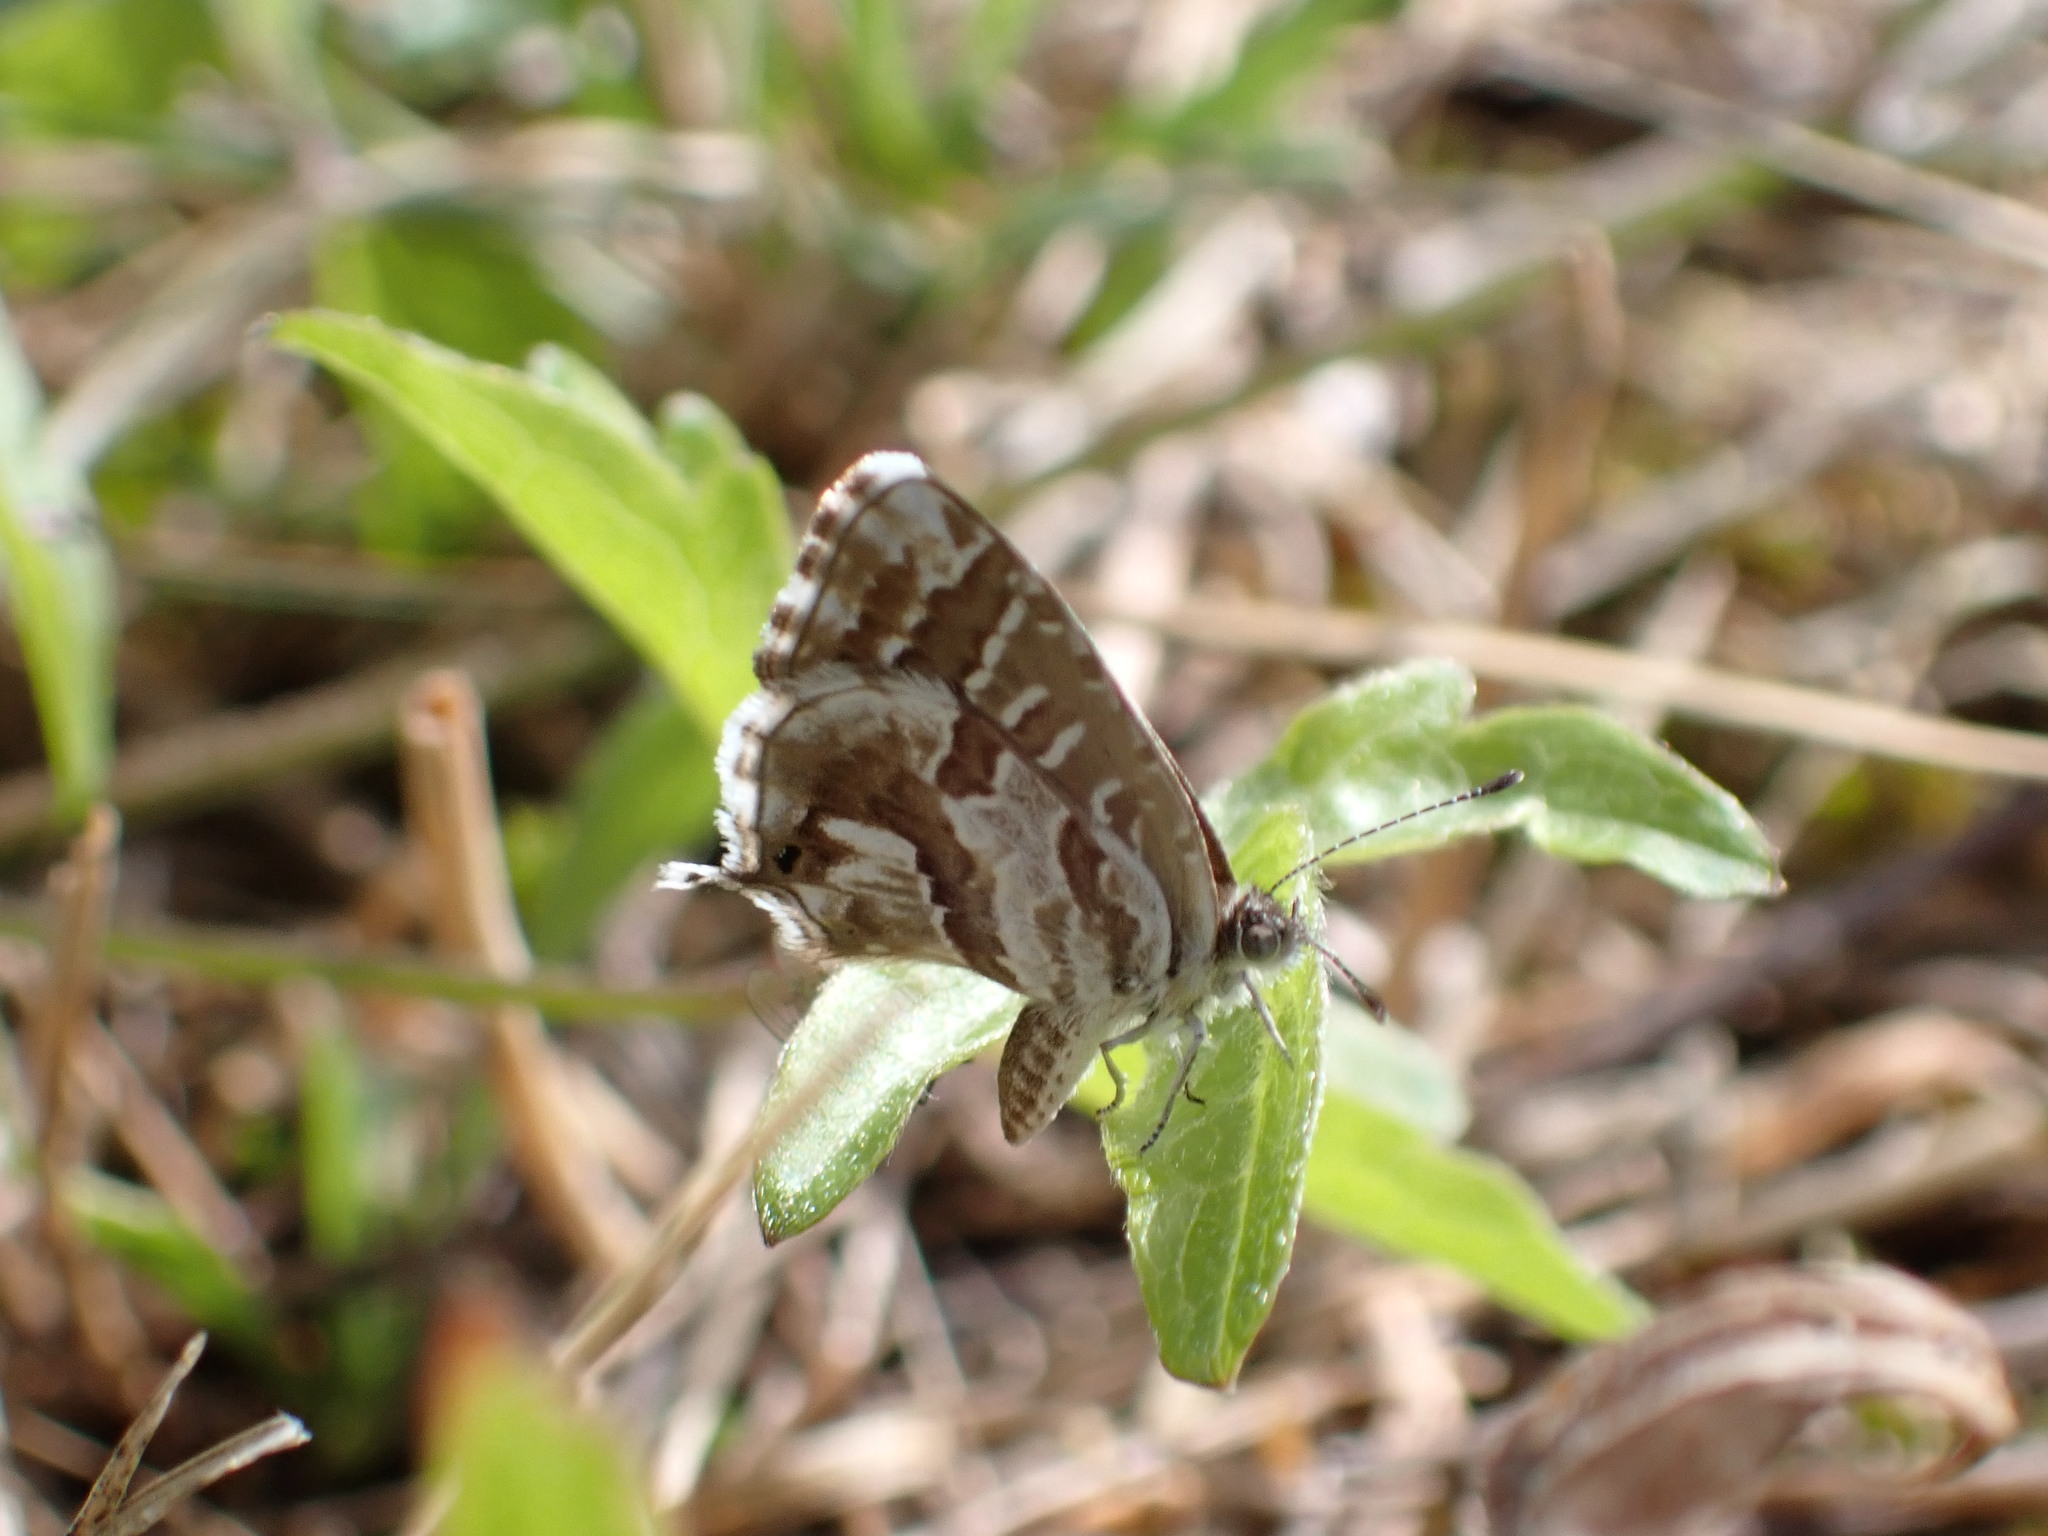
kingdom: Animalia
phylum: Arthropoda
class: Insecta
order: Lepidoptera
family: Lycaenidae
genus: Cacyreus
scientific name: Cacyreus marshalli
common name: Geranium bronze
